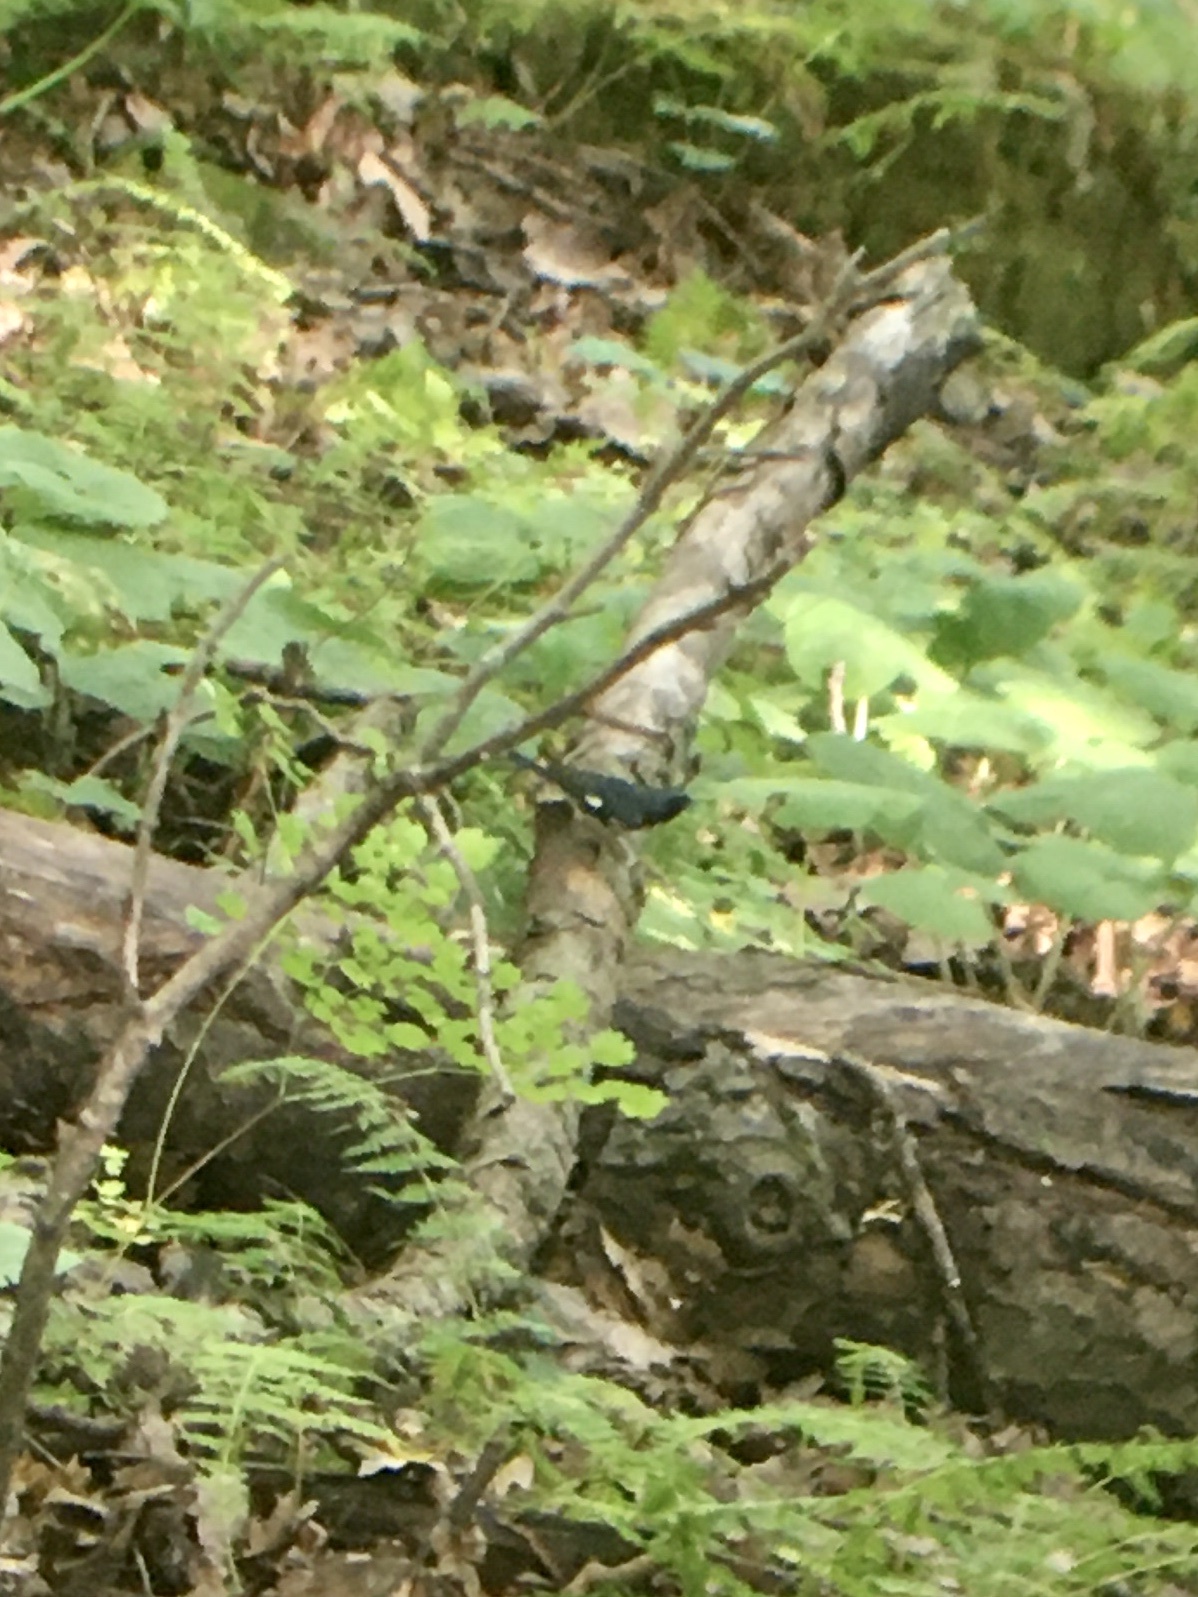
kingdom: Animalia
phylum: Chordata
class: Aves
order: Passeriformes
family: Parulidae
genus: Setophaga
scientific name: Setophaga caerulescens
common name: Black-throated blue warbler
